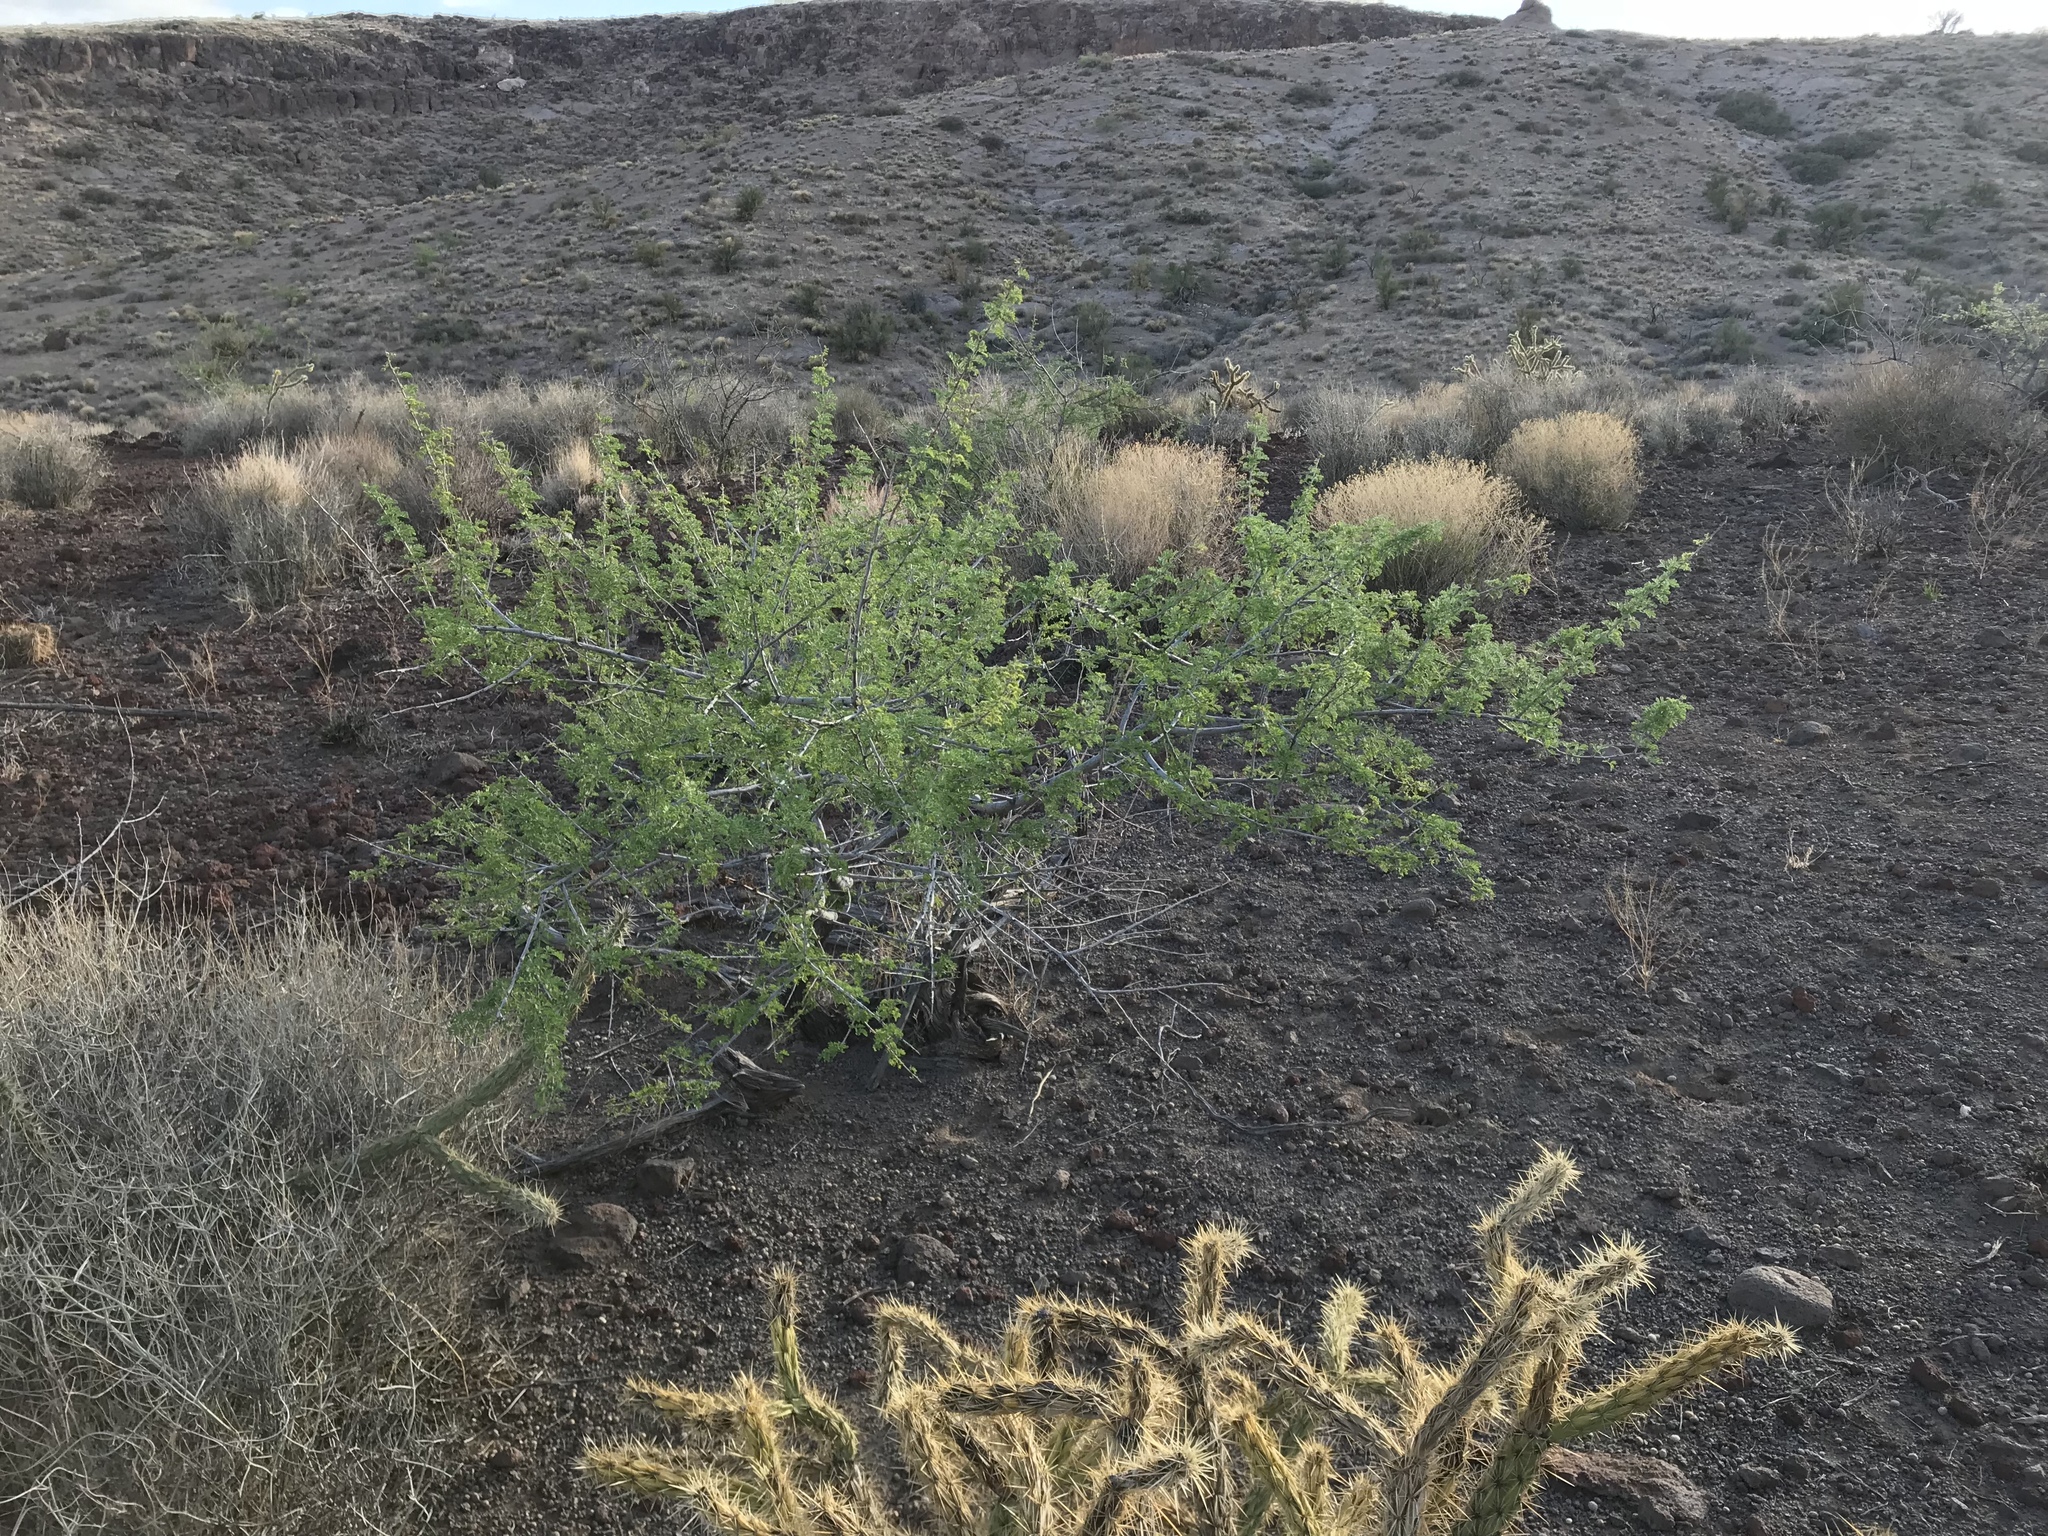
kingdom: Plantae
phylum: Tracheophyta
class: Magnoliopsida
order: Fabales
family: Fabaceae
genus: Senegalia
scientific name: Senegalia greggii
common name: Texas-mimosa
